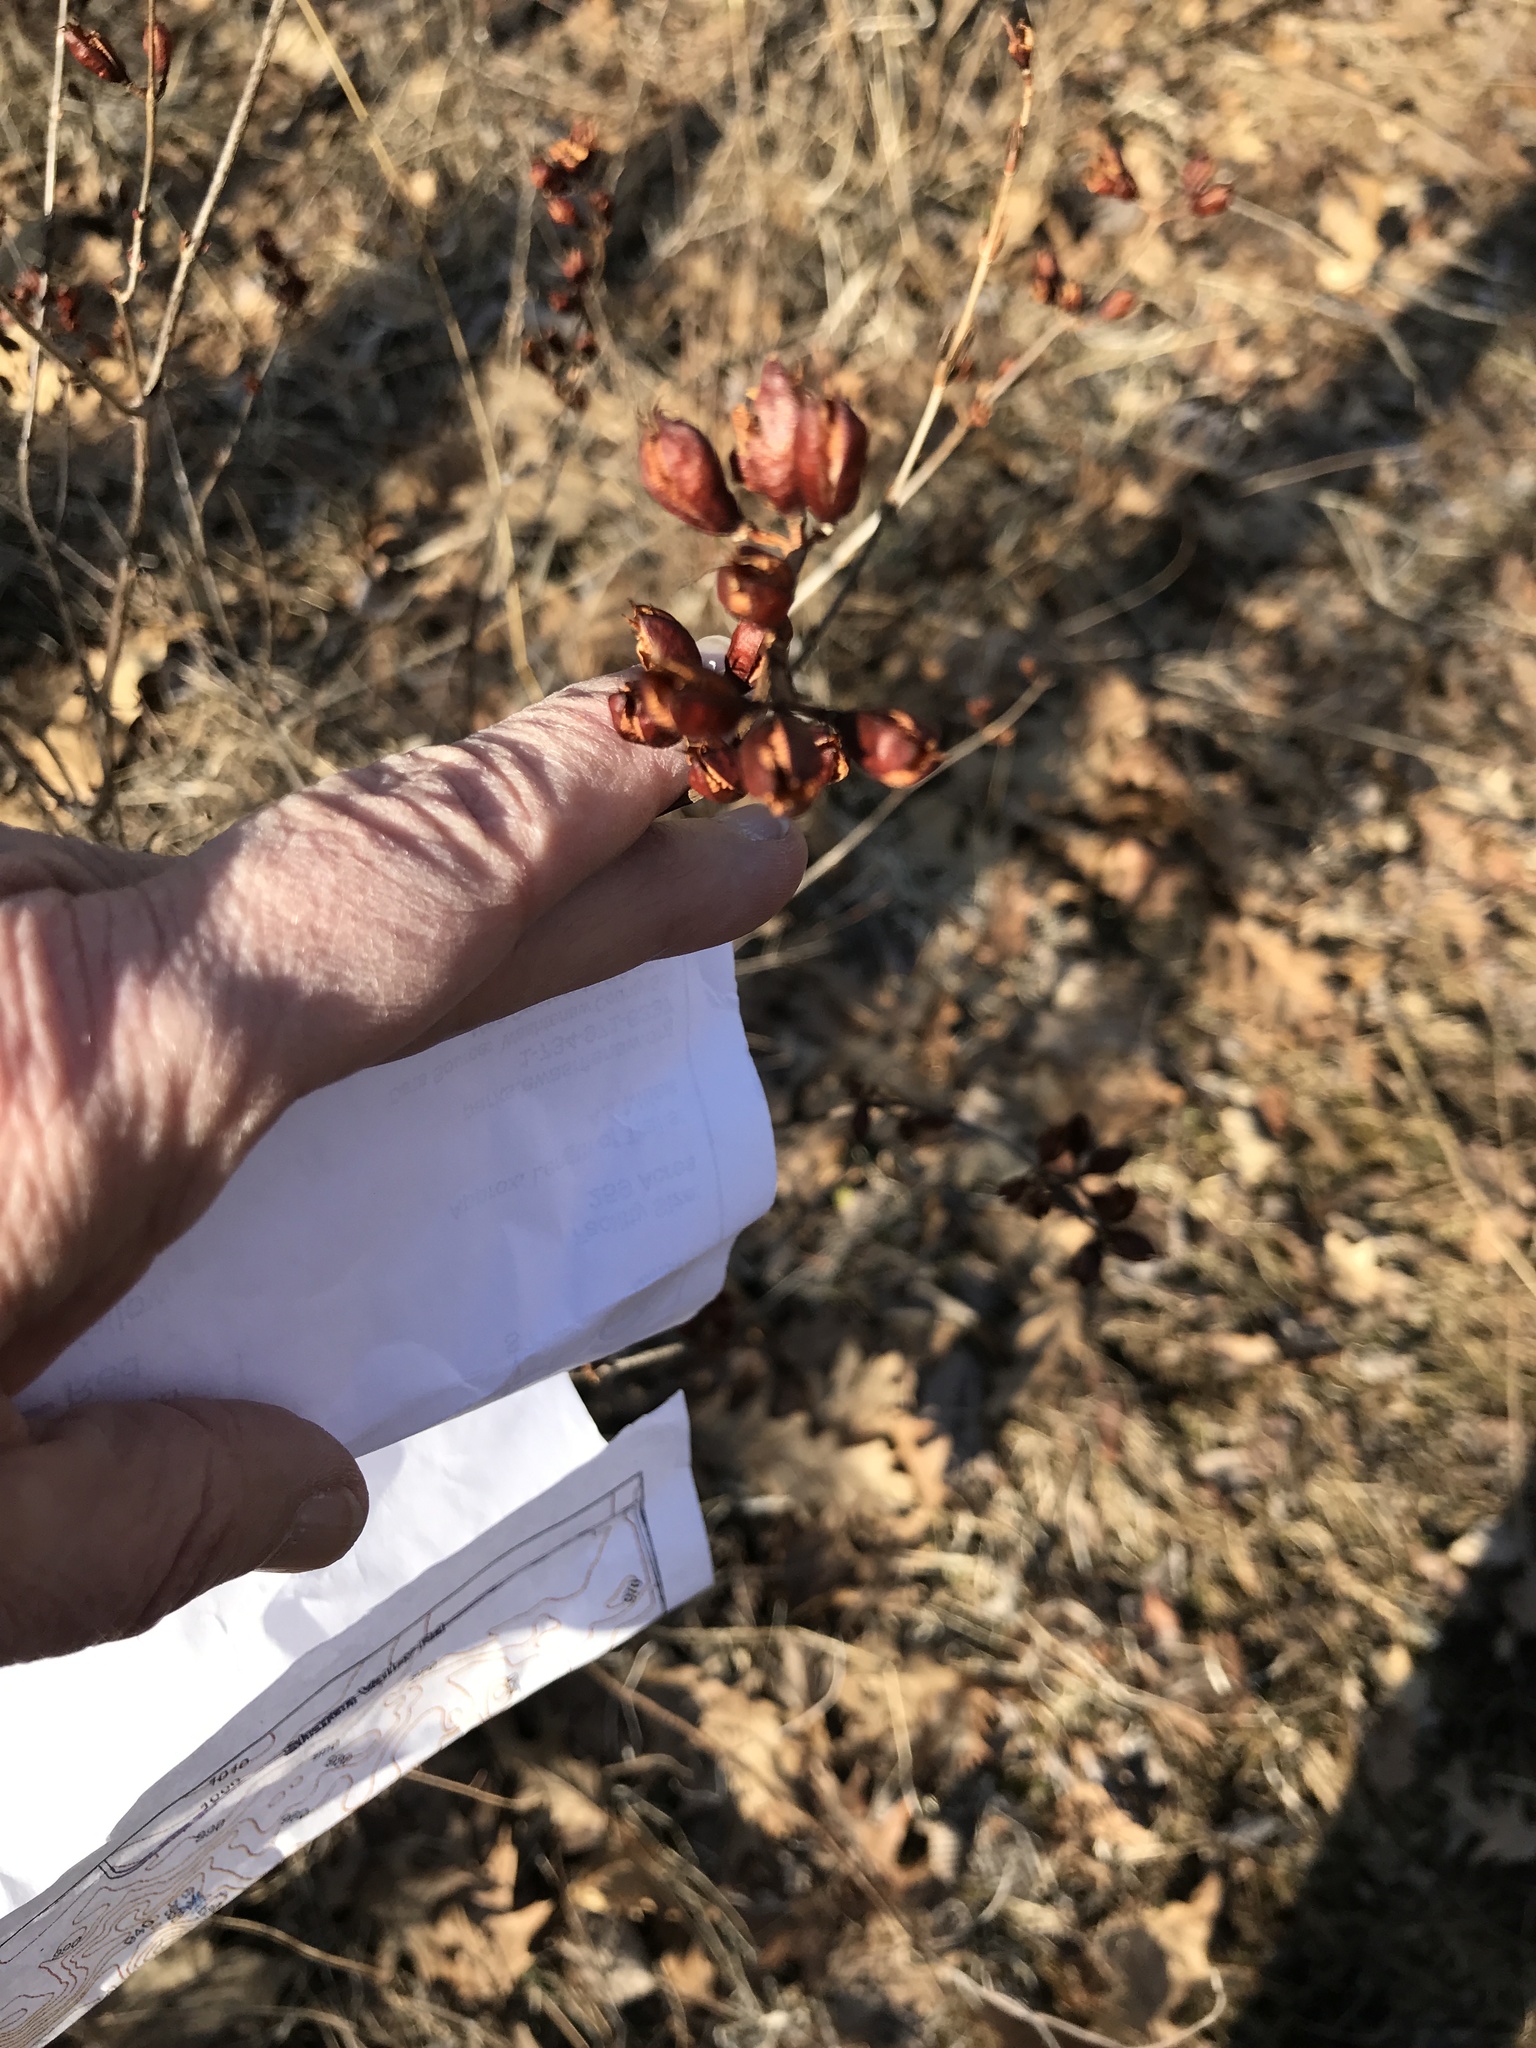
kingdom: Plantae
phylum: Tracheophyta
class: Magnoliopsida
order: Malpighiales
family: Hypericaceae
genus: Hypericum
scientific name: Hypericum prolificum
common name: Shrubby st. john's-wort
